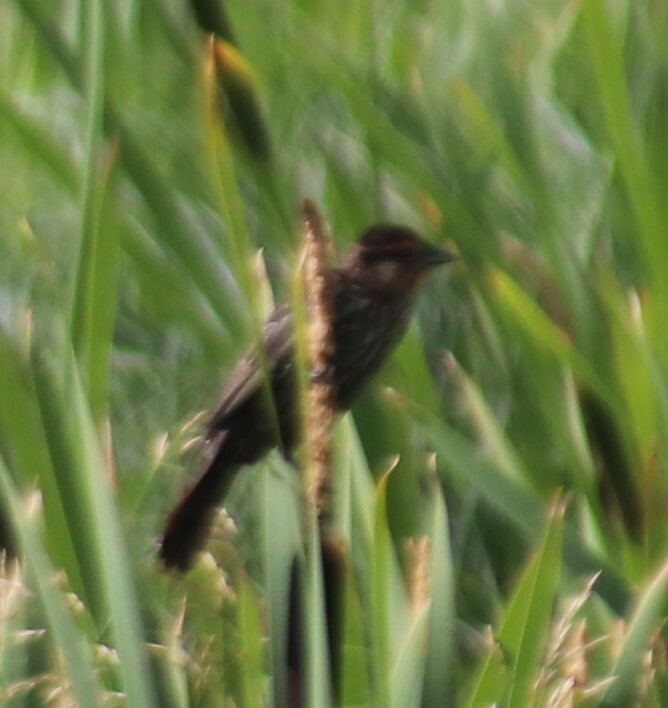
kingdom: Animalia
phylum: Chordata
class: Aves
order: Passeriformes
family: Icteridae
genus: Agelaius
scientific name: Agelaius phoeniceus
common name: Red-winged blackbird
